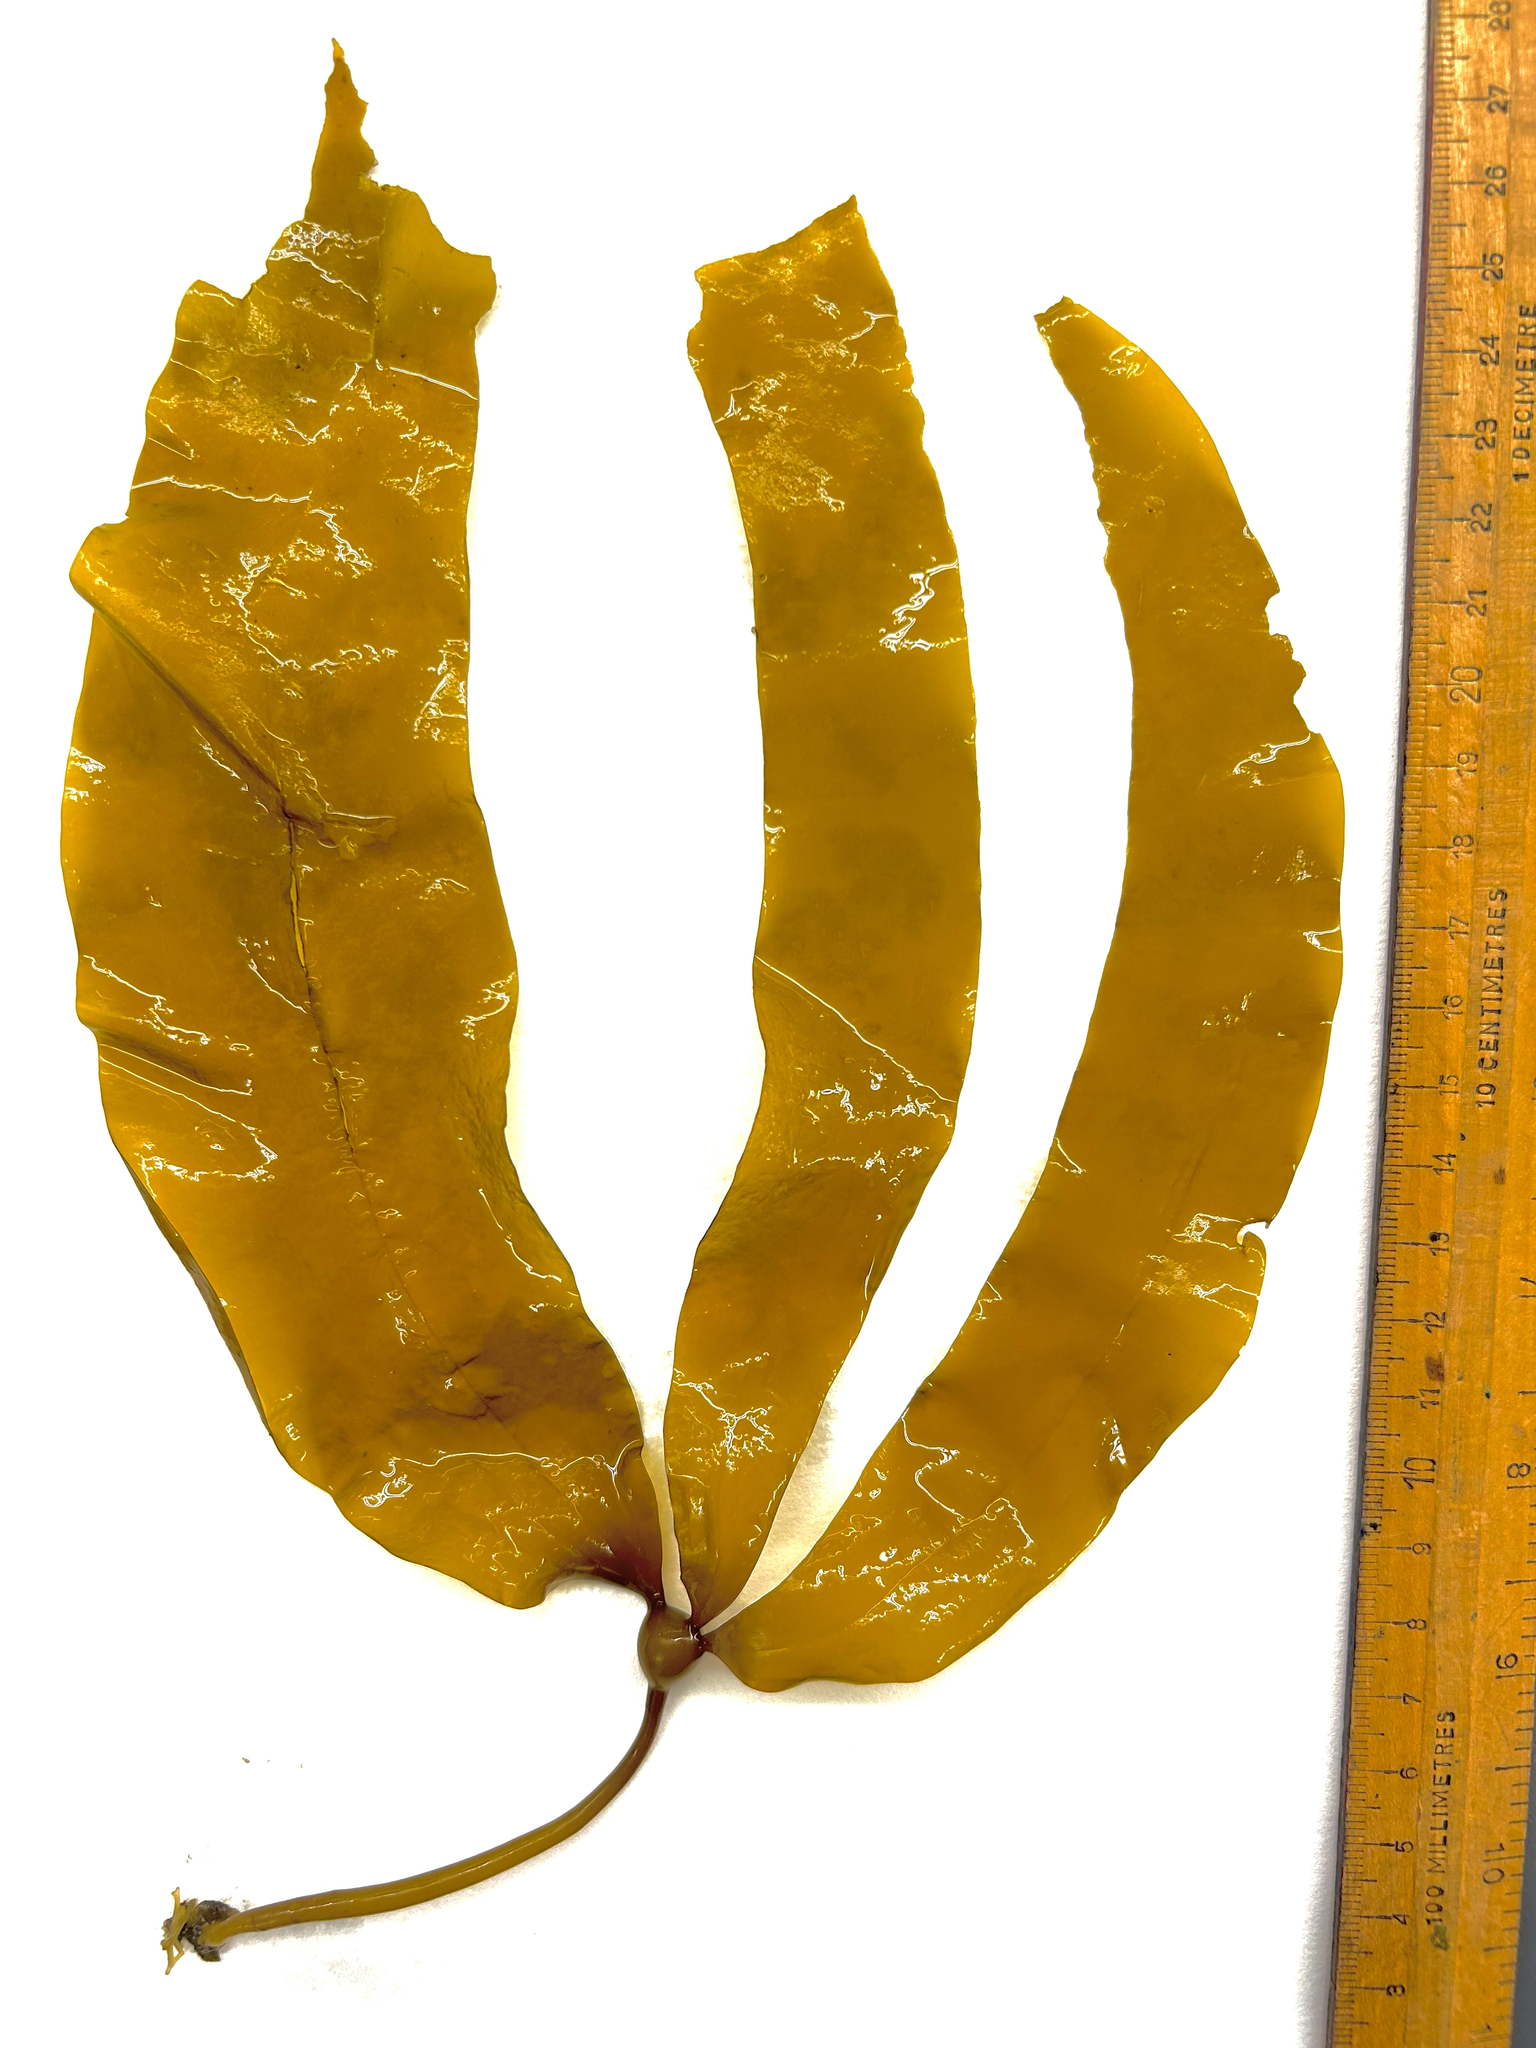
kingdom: Chromista
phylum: Ochrophyta
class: Phaeophyceae
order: Laminariales
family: Laminariaceae
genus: Nereocystis
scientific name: Nereocystis luetkeana
